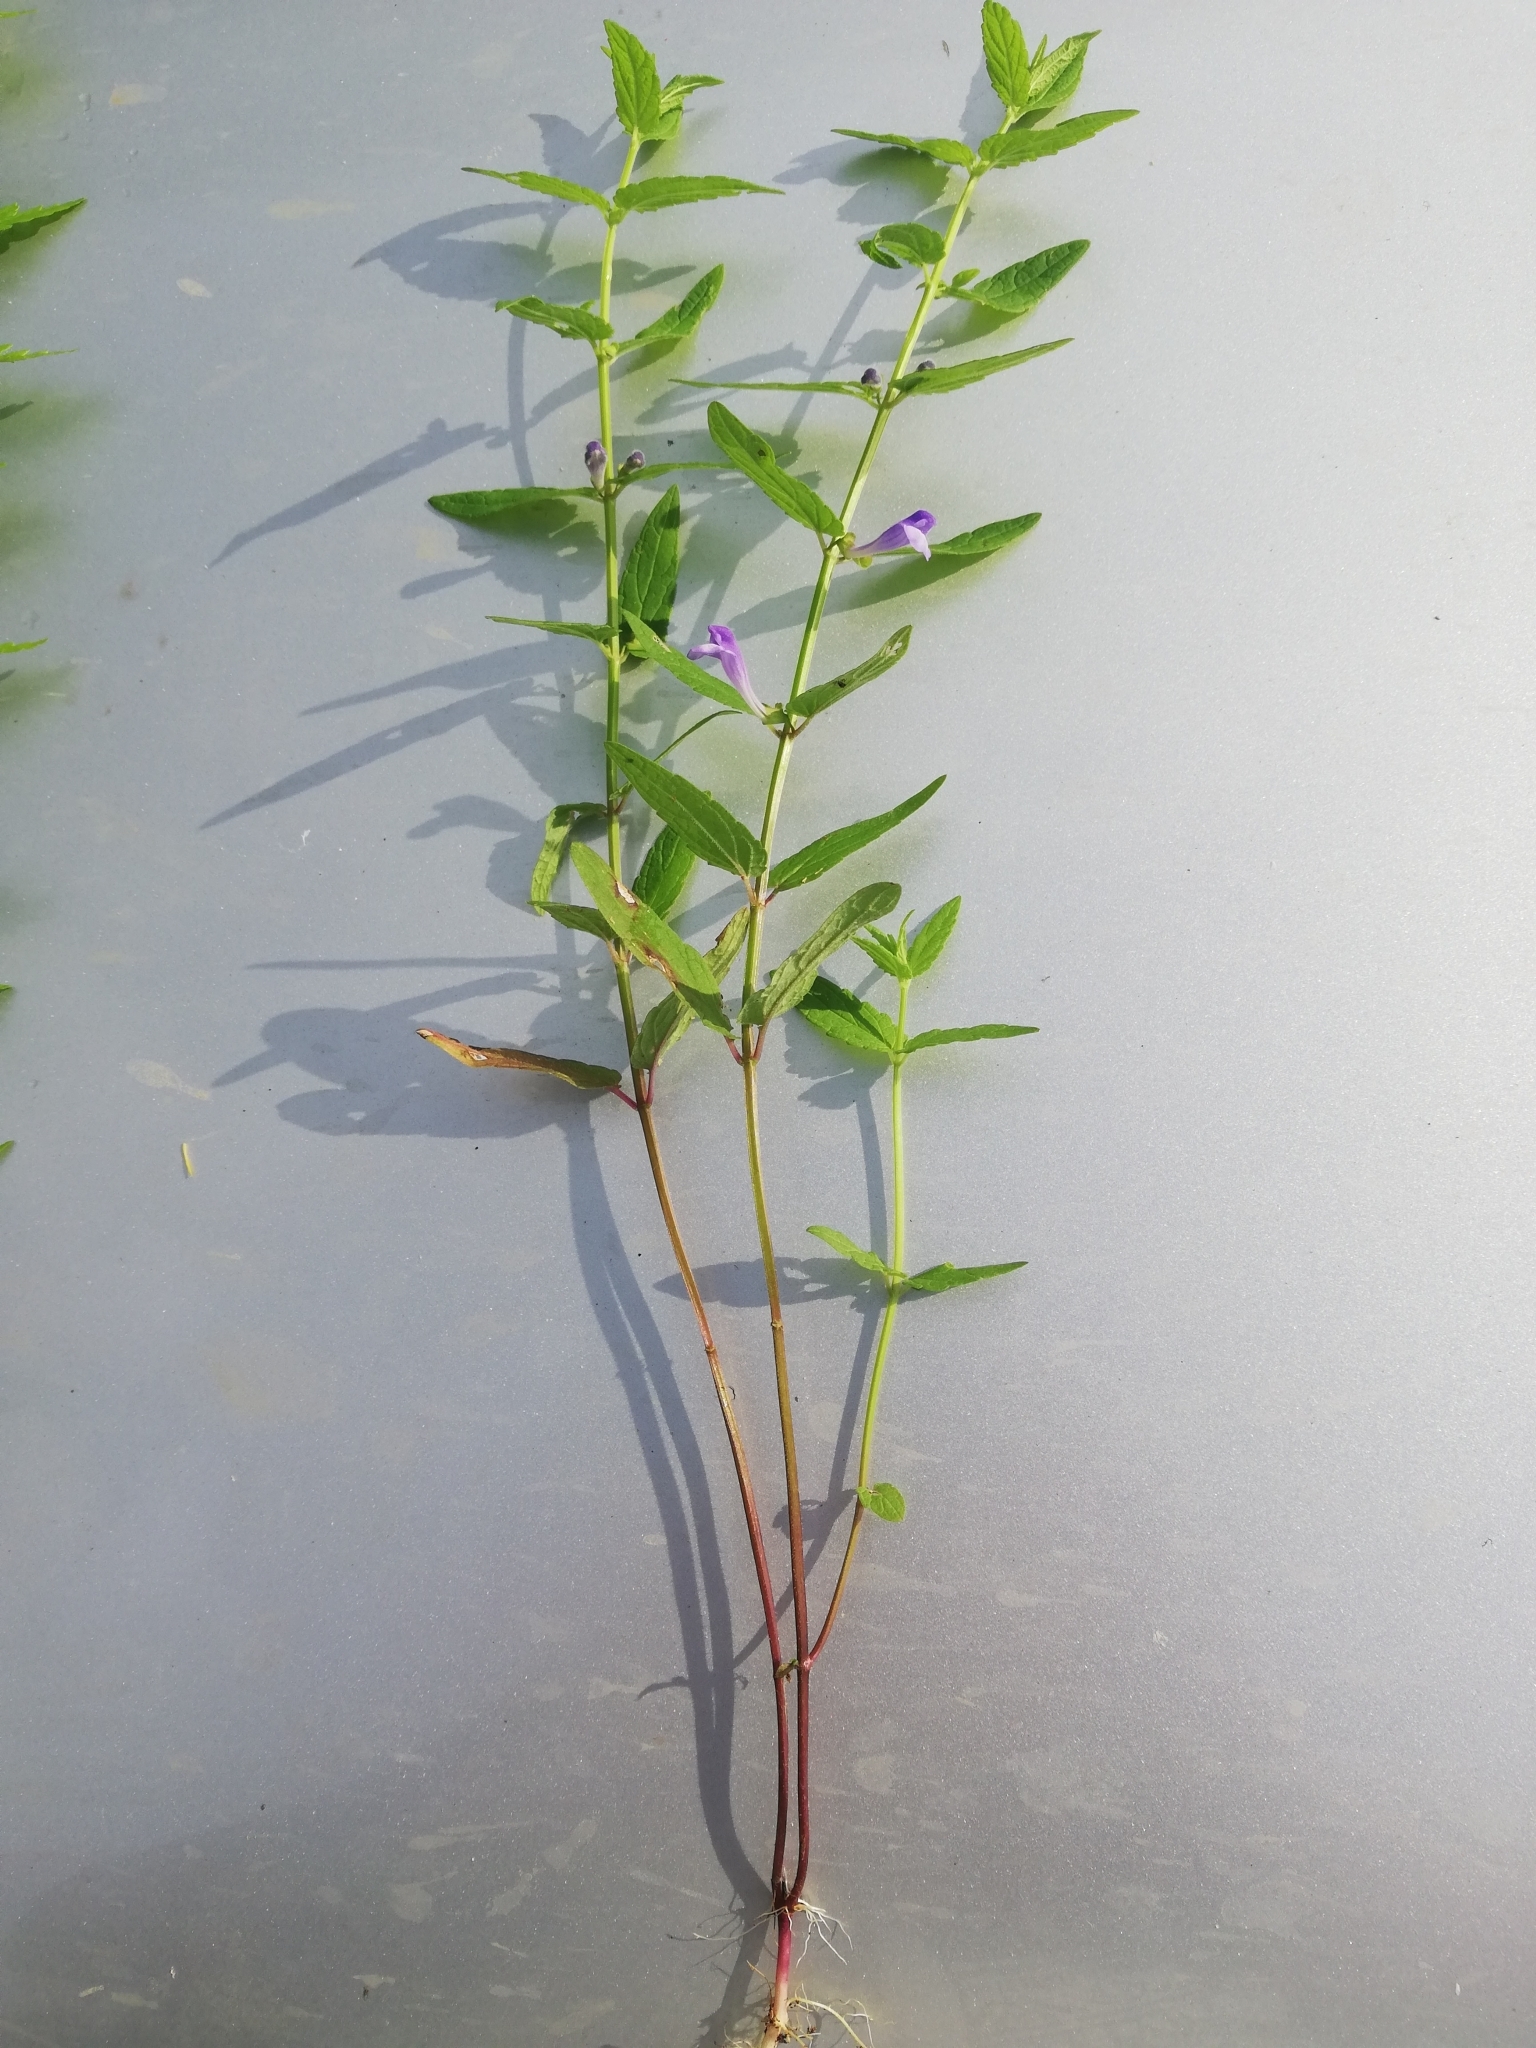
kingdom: Plantae
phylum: Tracheophyta
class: Magnoliopsida
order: Lamiales
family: Lamiaceae
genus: Scutellaria
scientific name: Scutellaria galericulata
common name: Skullcap
